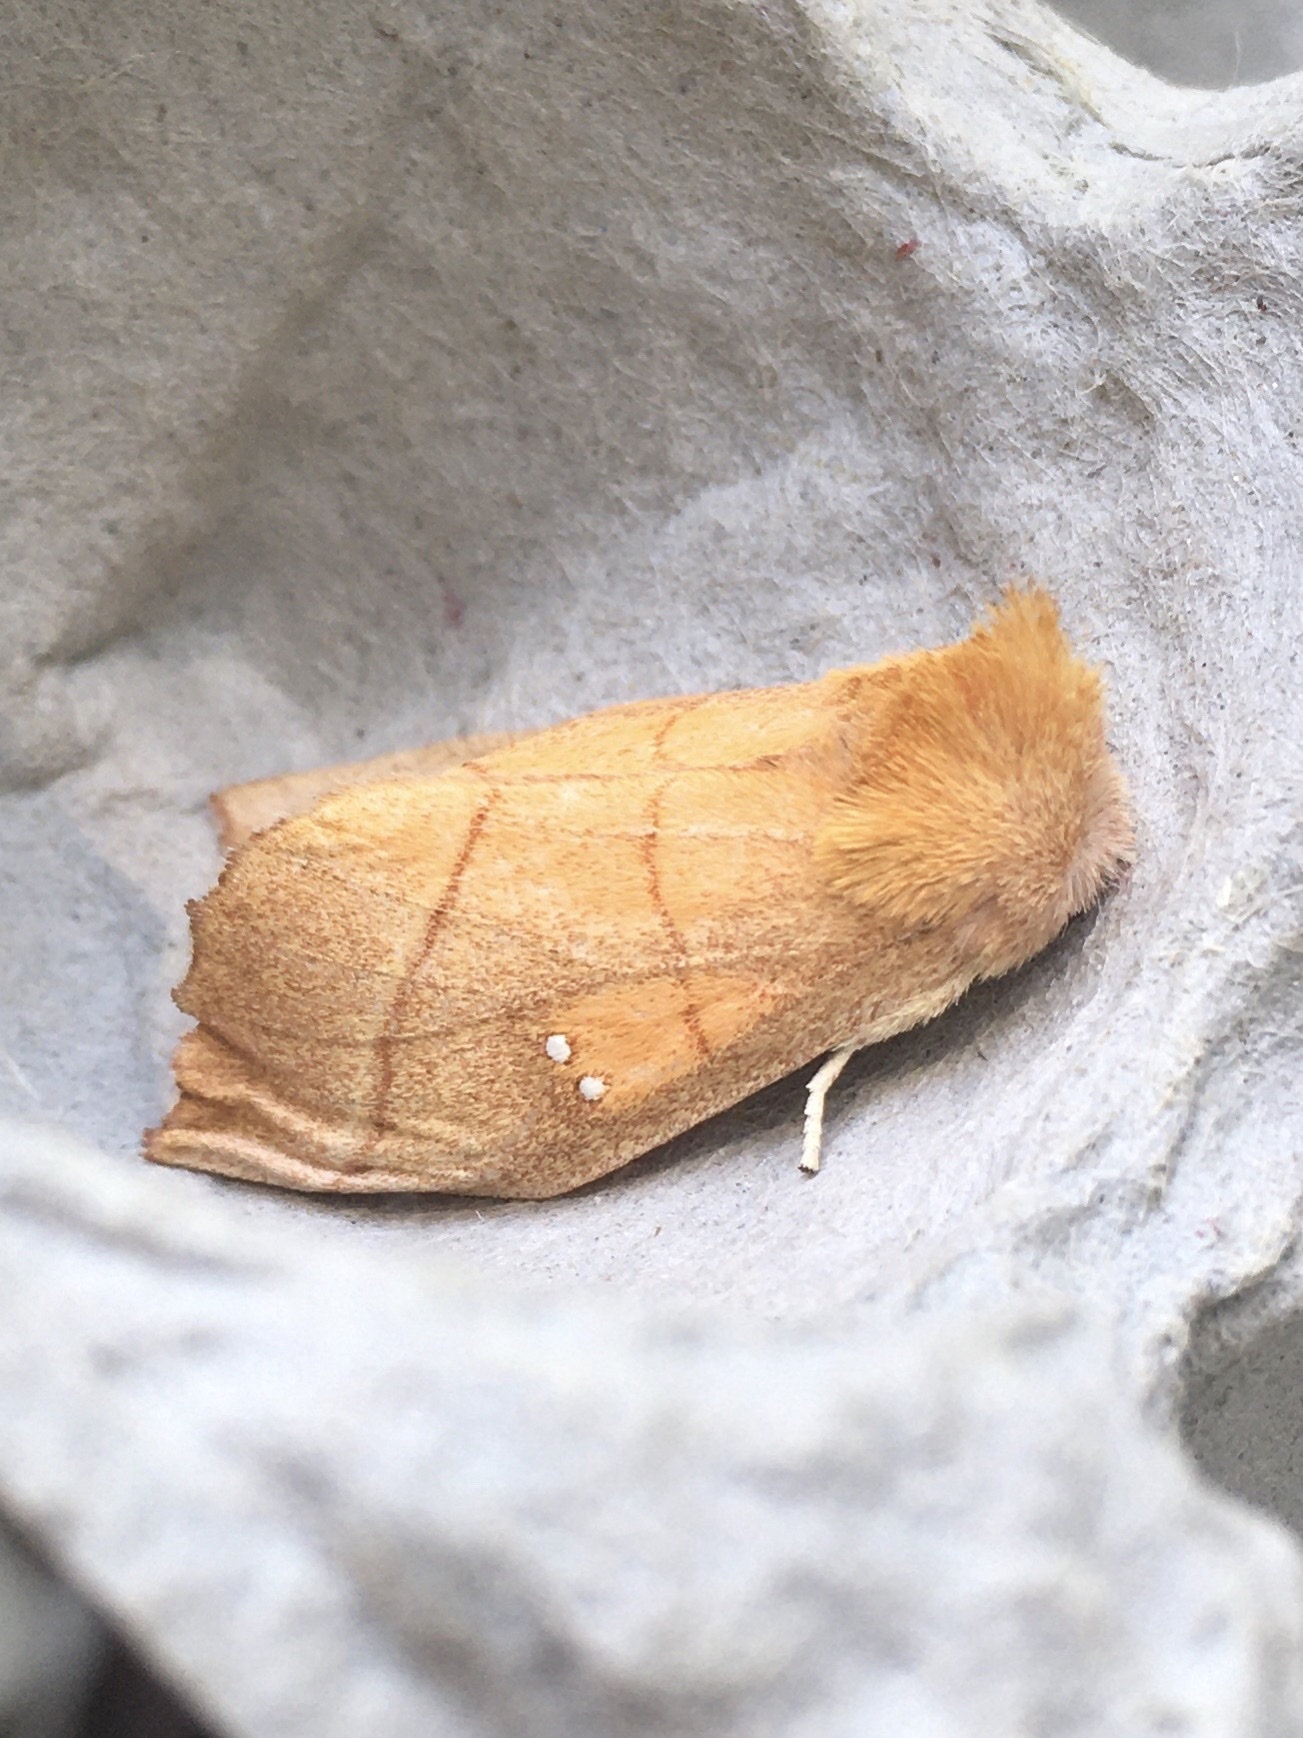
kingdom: Animalia
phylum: Arthropoda
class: Insecta
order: Lepidoptera
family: Notodontidae
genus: Nadata
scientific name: Nadata gibbosa
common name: White-dotted prominent
